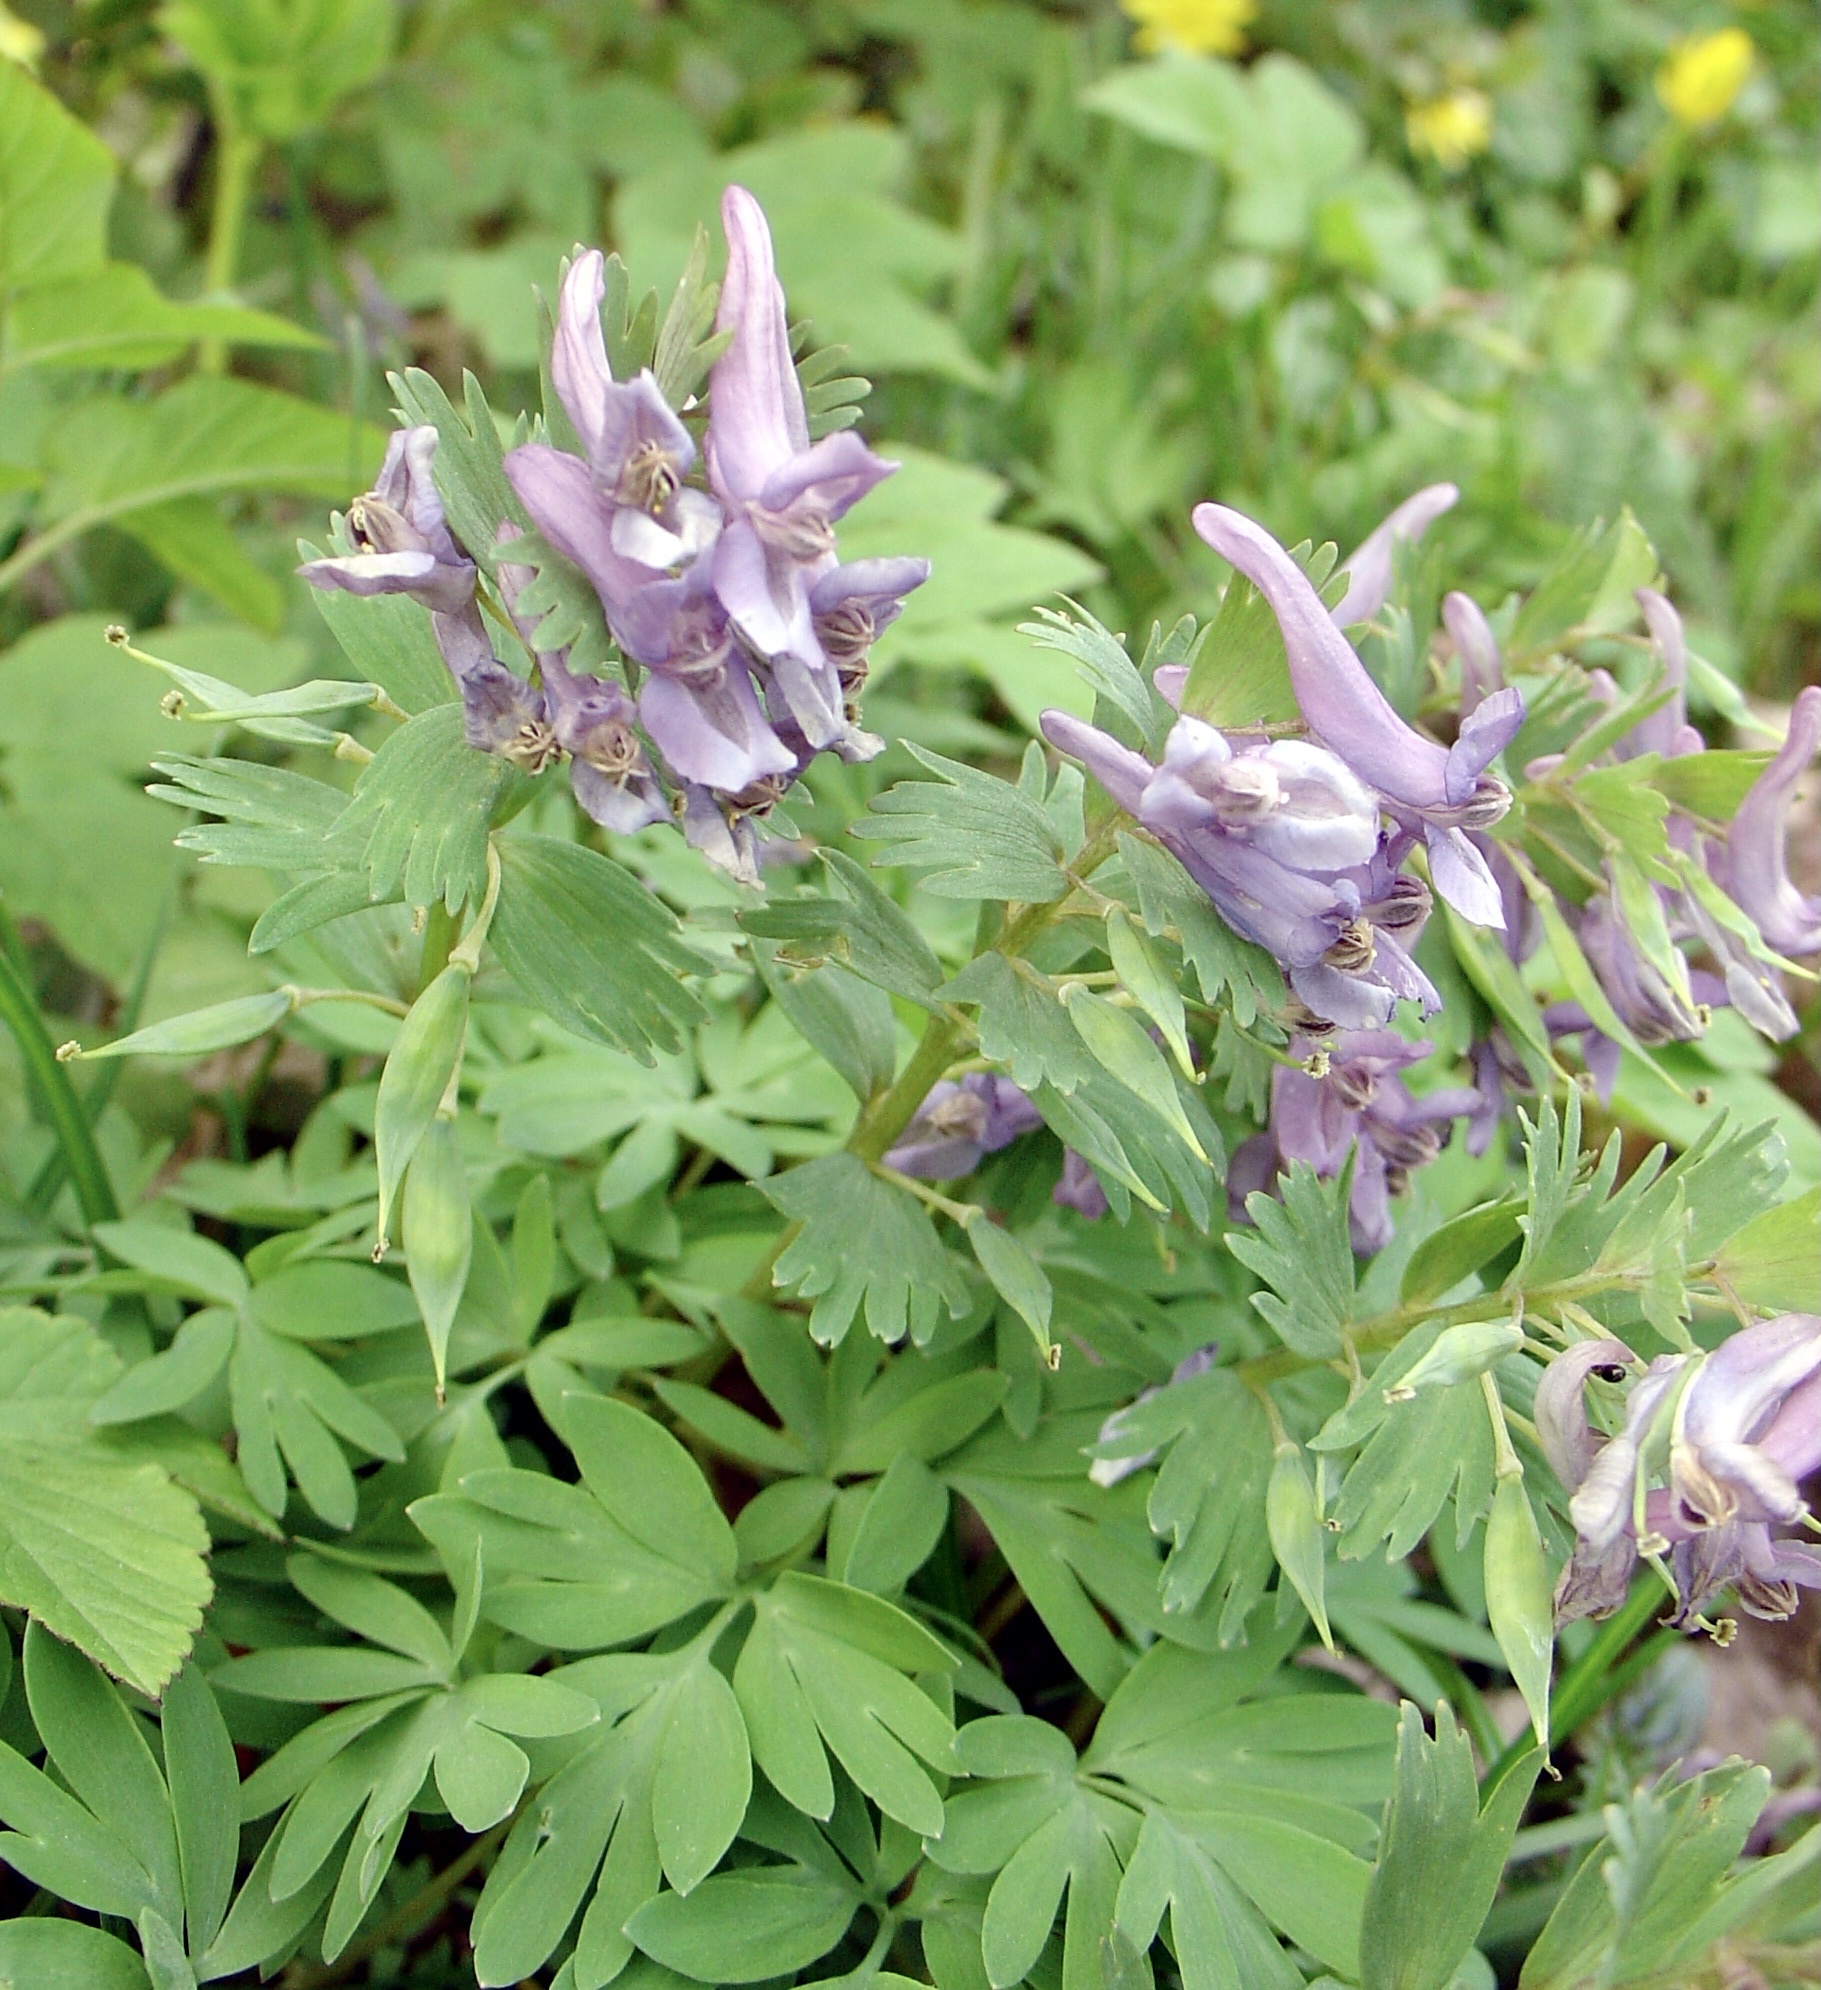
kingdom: Plantae
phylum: Tracheophyta
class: Magnoliopsida
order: Ranunculales
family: Papaveraceae
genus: Corydalis
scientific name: Corydalis solida
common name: Bird-in-a-bush
